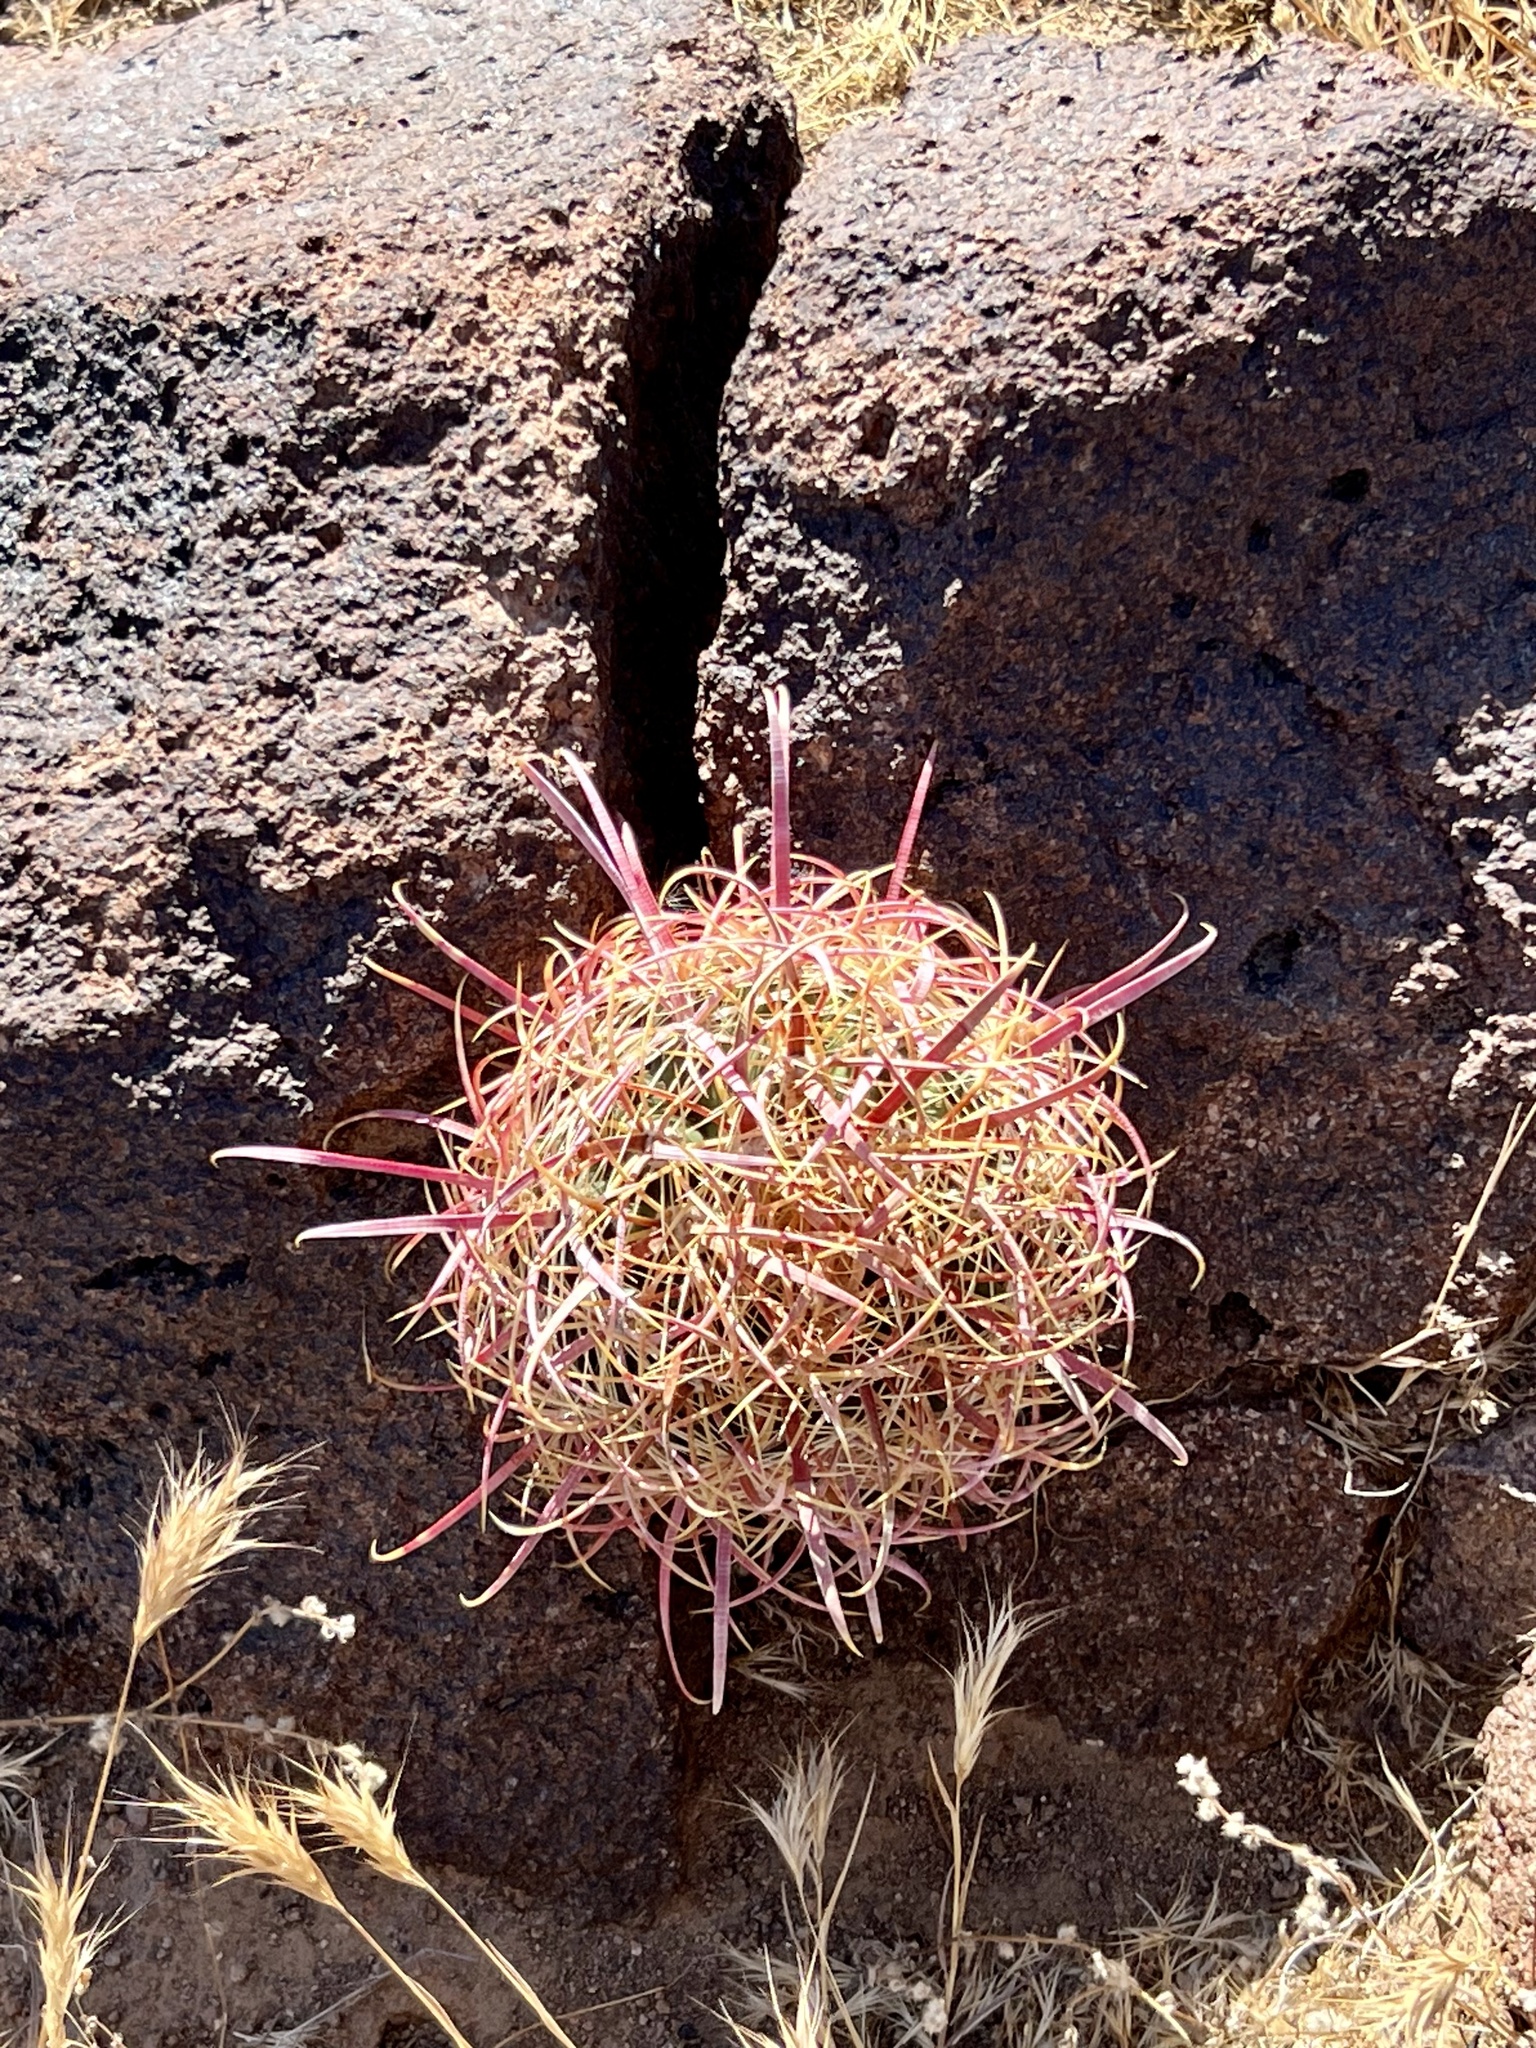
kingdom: Plantae
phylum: Tracheophyta
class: Magnoliopsida
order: Caryophyllales
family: Cactaceae
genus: Ferocactus
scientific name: Ferocactus cylindraceus
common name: California barrel cactus
